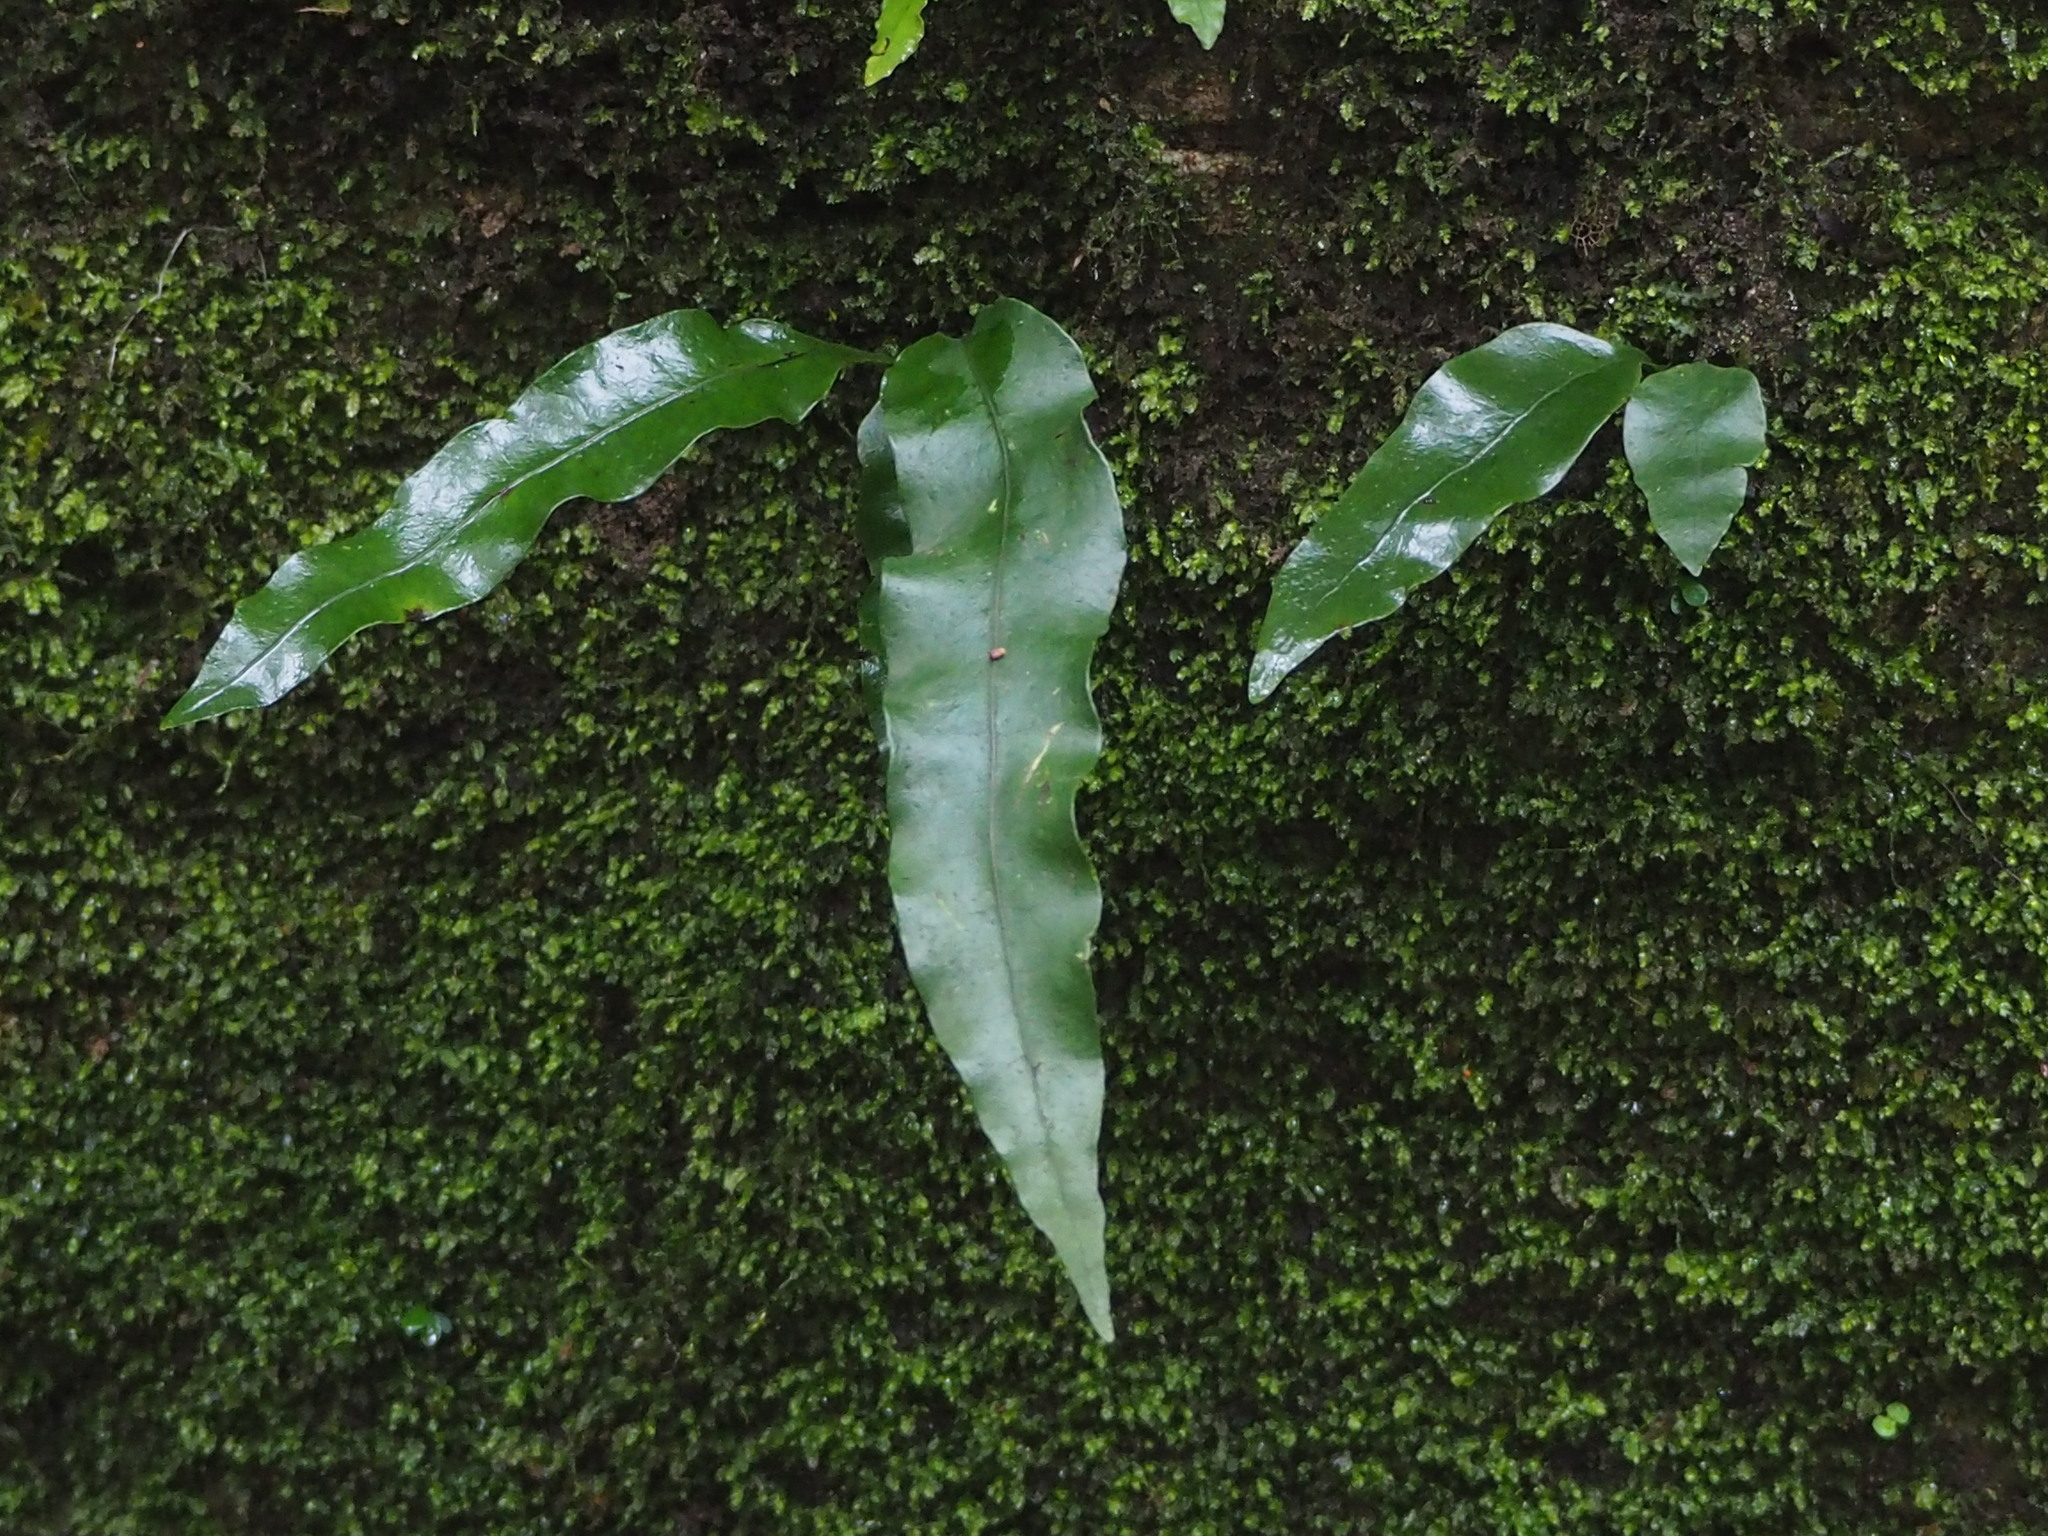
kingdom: Plantae
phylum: Tracheophyta
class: Polypodiopsida
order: Polypodiales
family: Polypodiaceae
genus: Lepisorus
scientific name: Lepisorus superficialis
